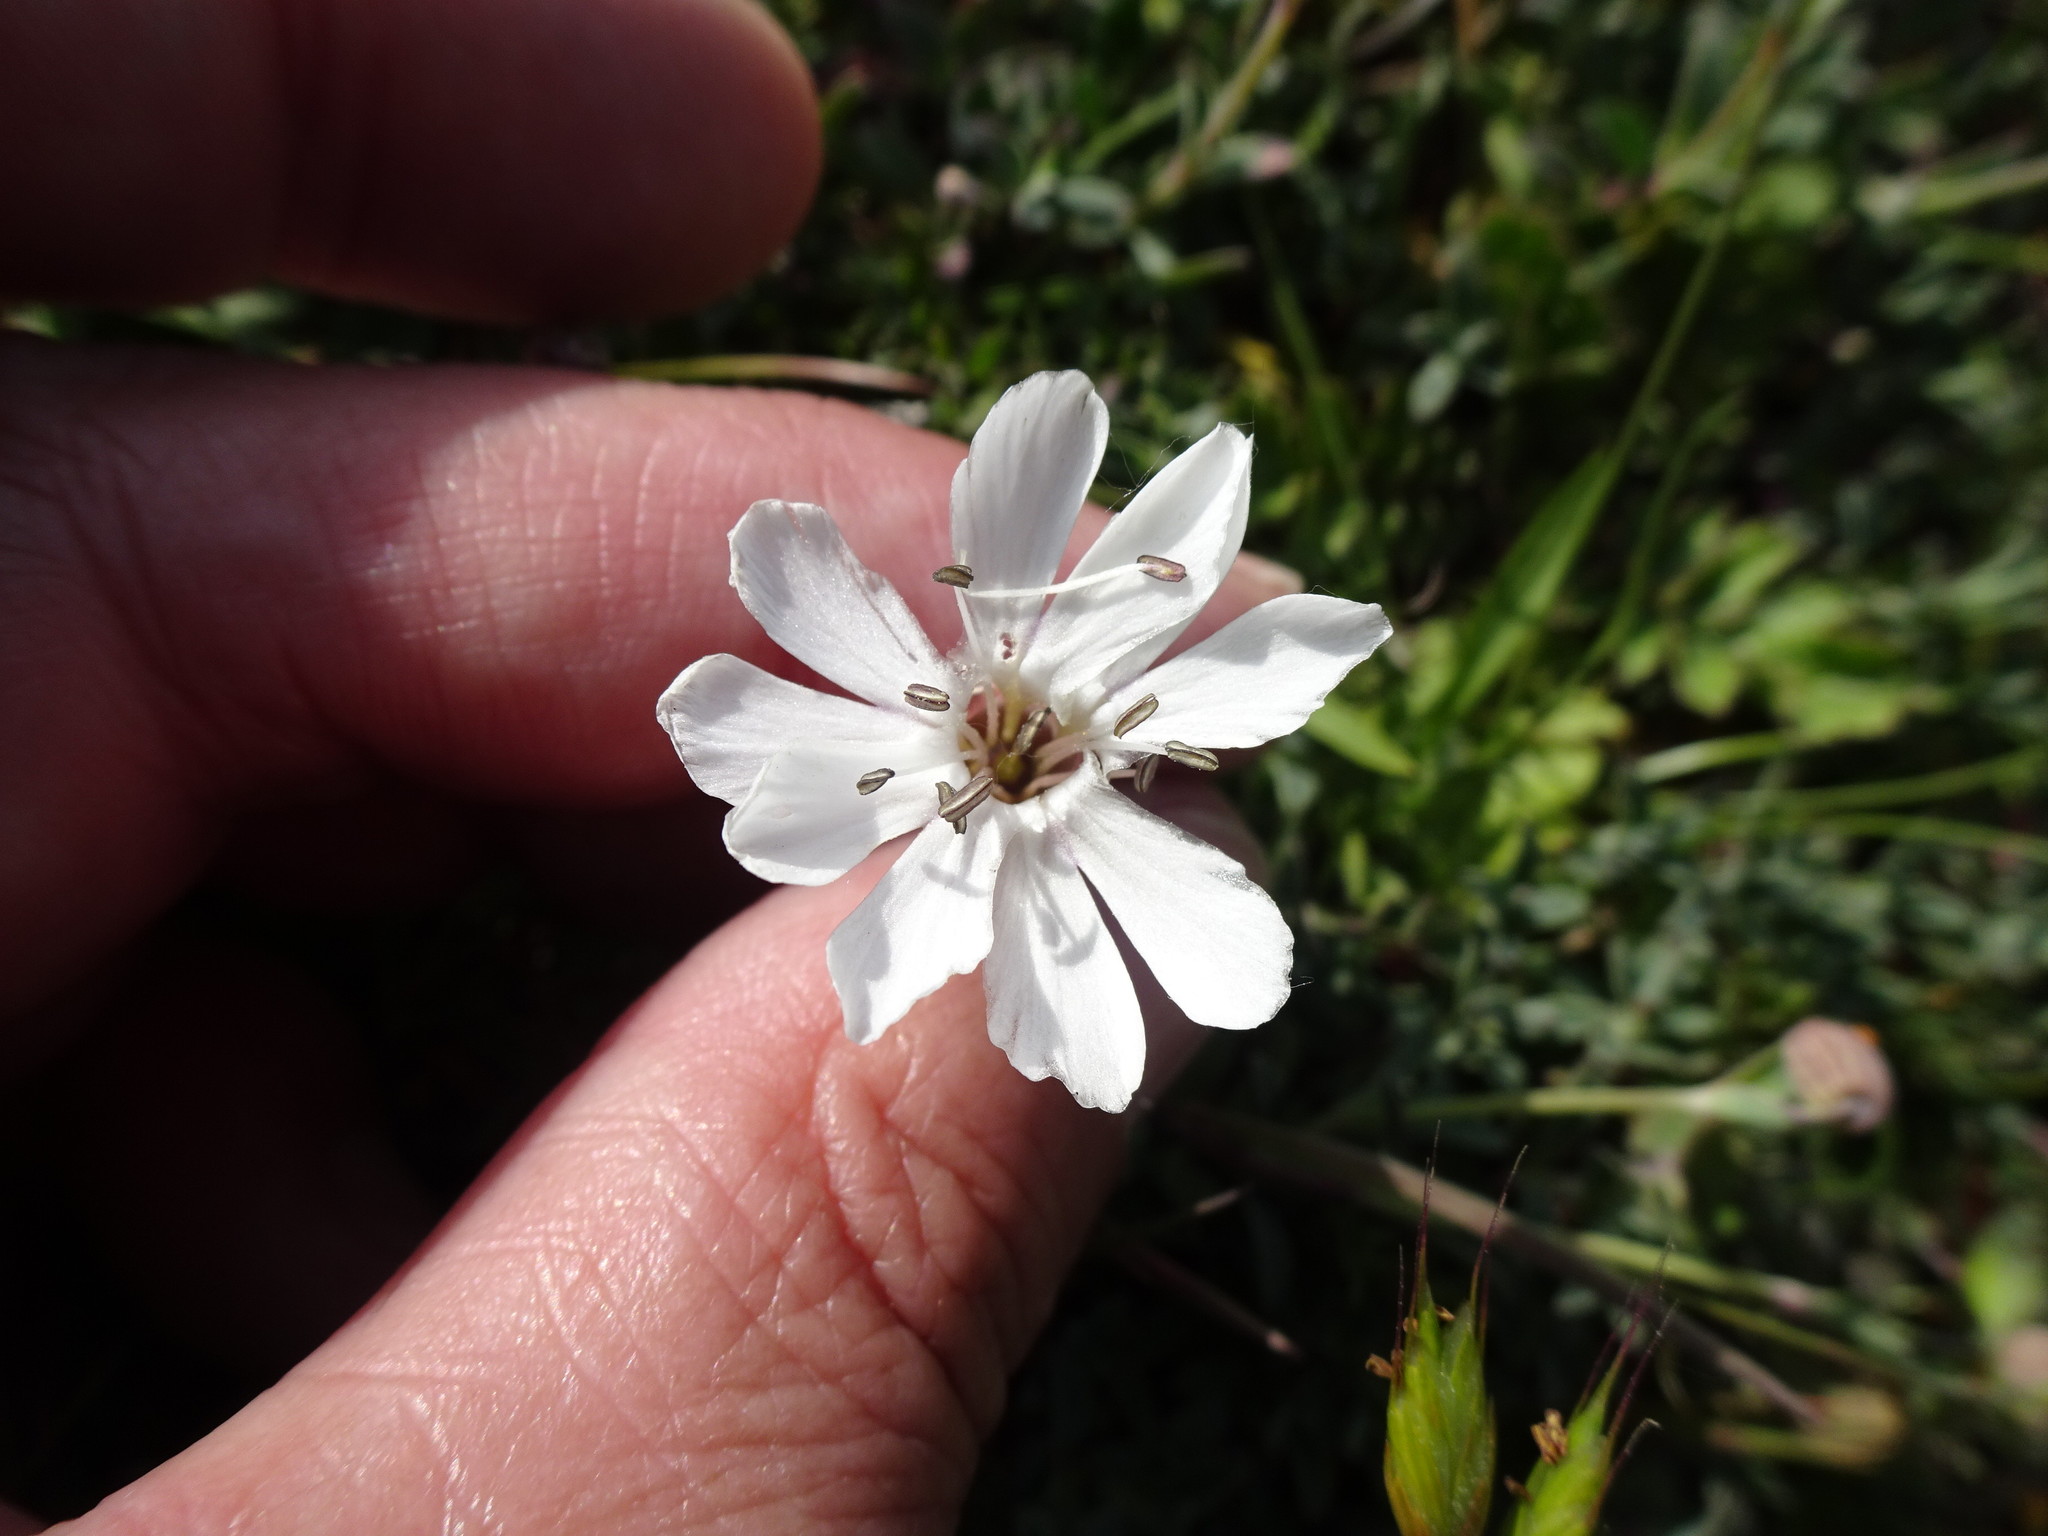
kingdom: Plantae
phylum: Tracheophyta
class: Magnoliopsida
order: Caryophyllales
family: Caryophyllaceae
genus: Silene
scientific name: Silene uniflora
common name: Sea campion
